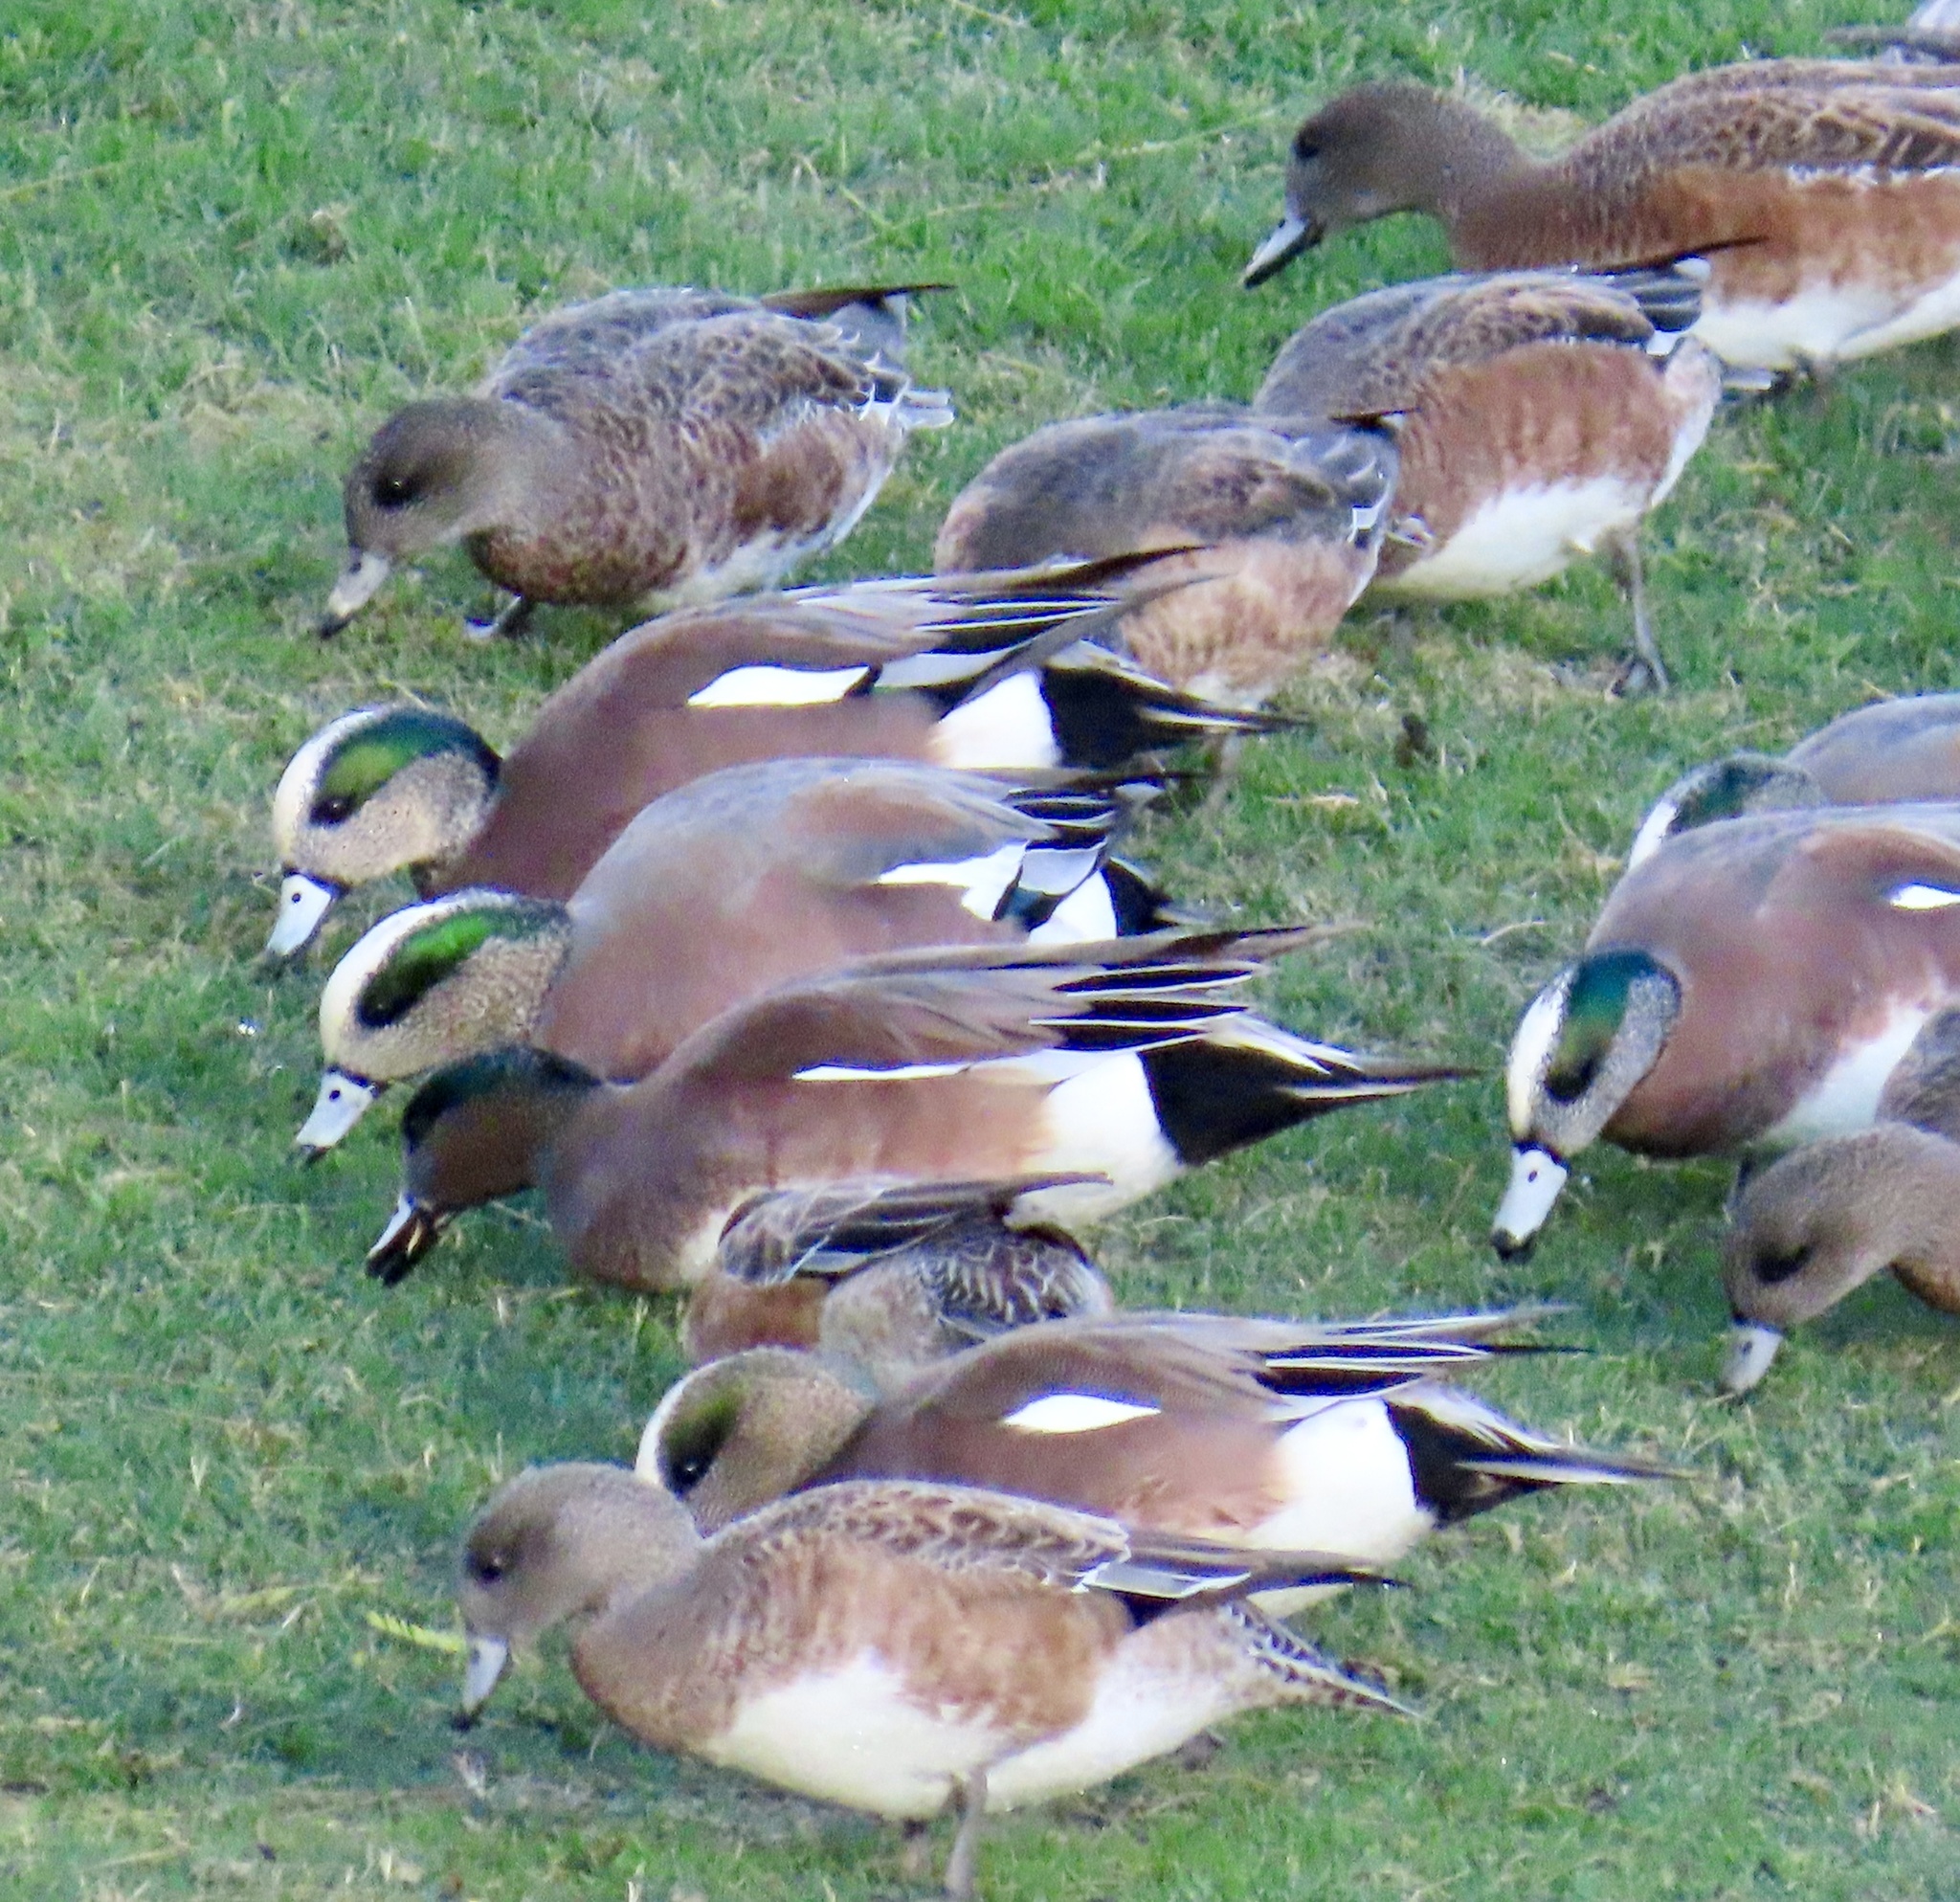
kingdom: Animalia
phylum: Chordata
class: Aves
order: Anseriformes
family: Anatidae
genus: Mareca
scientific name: Mareca americana
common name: American wigeon
